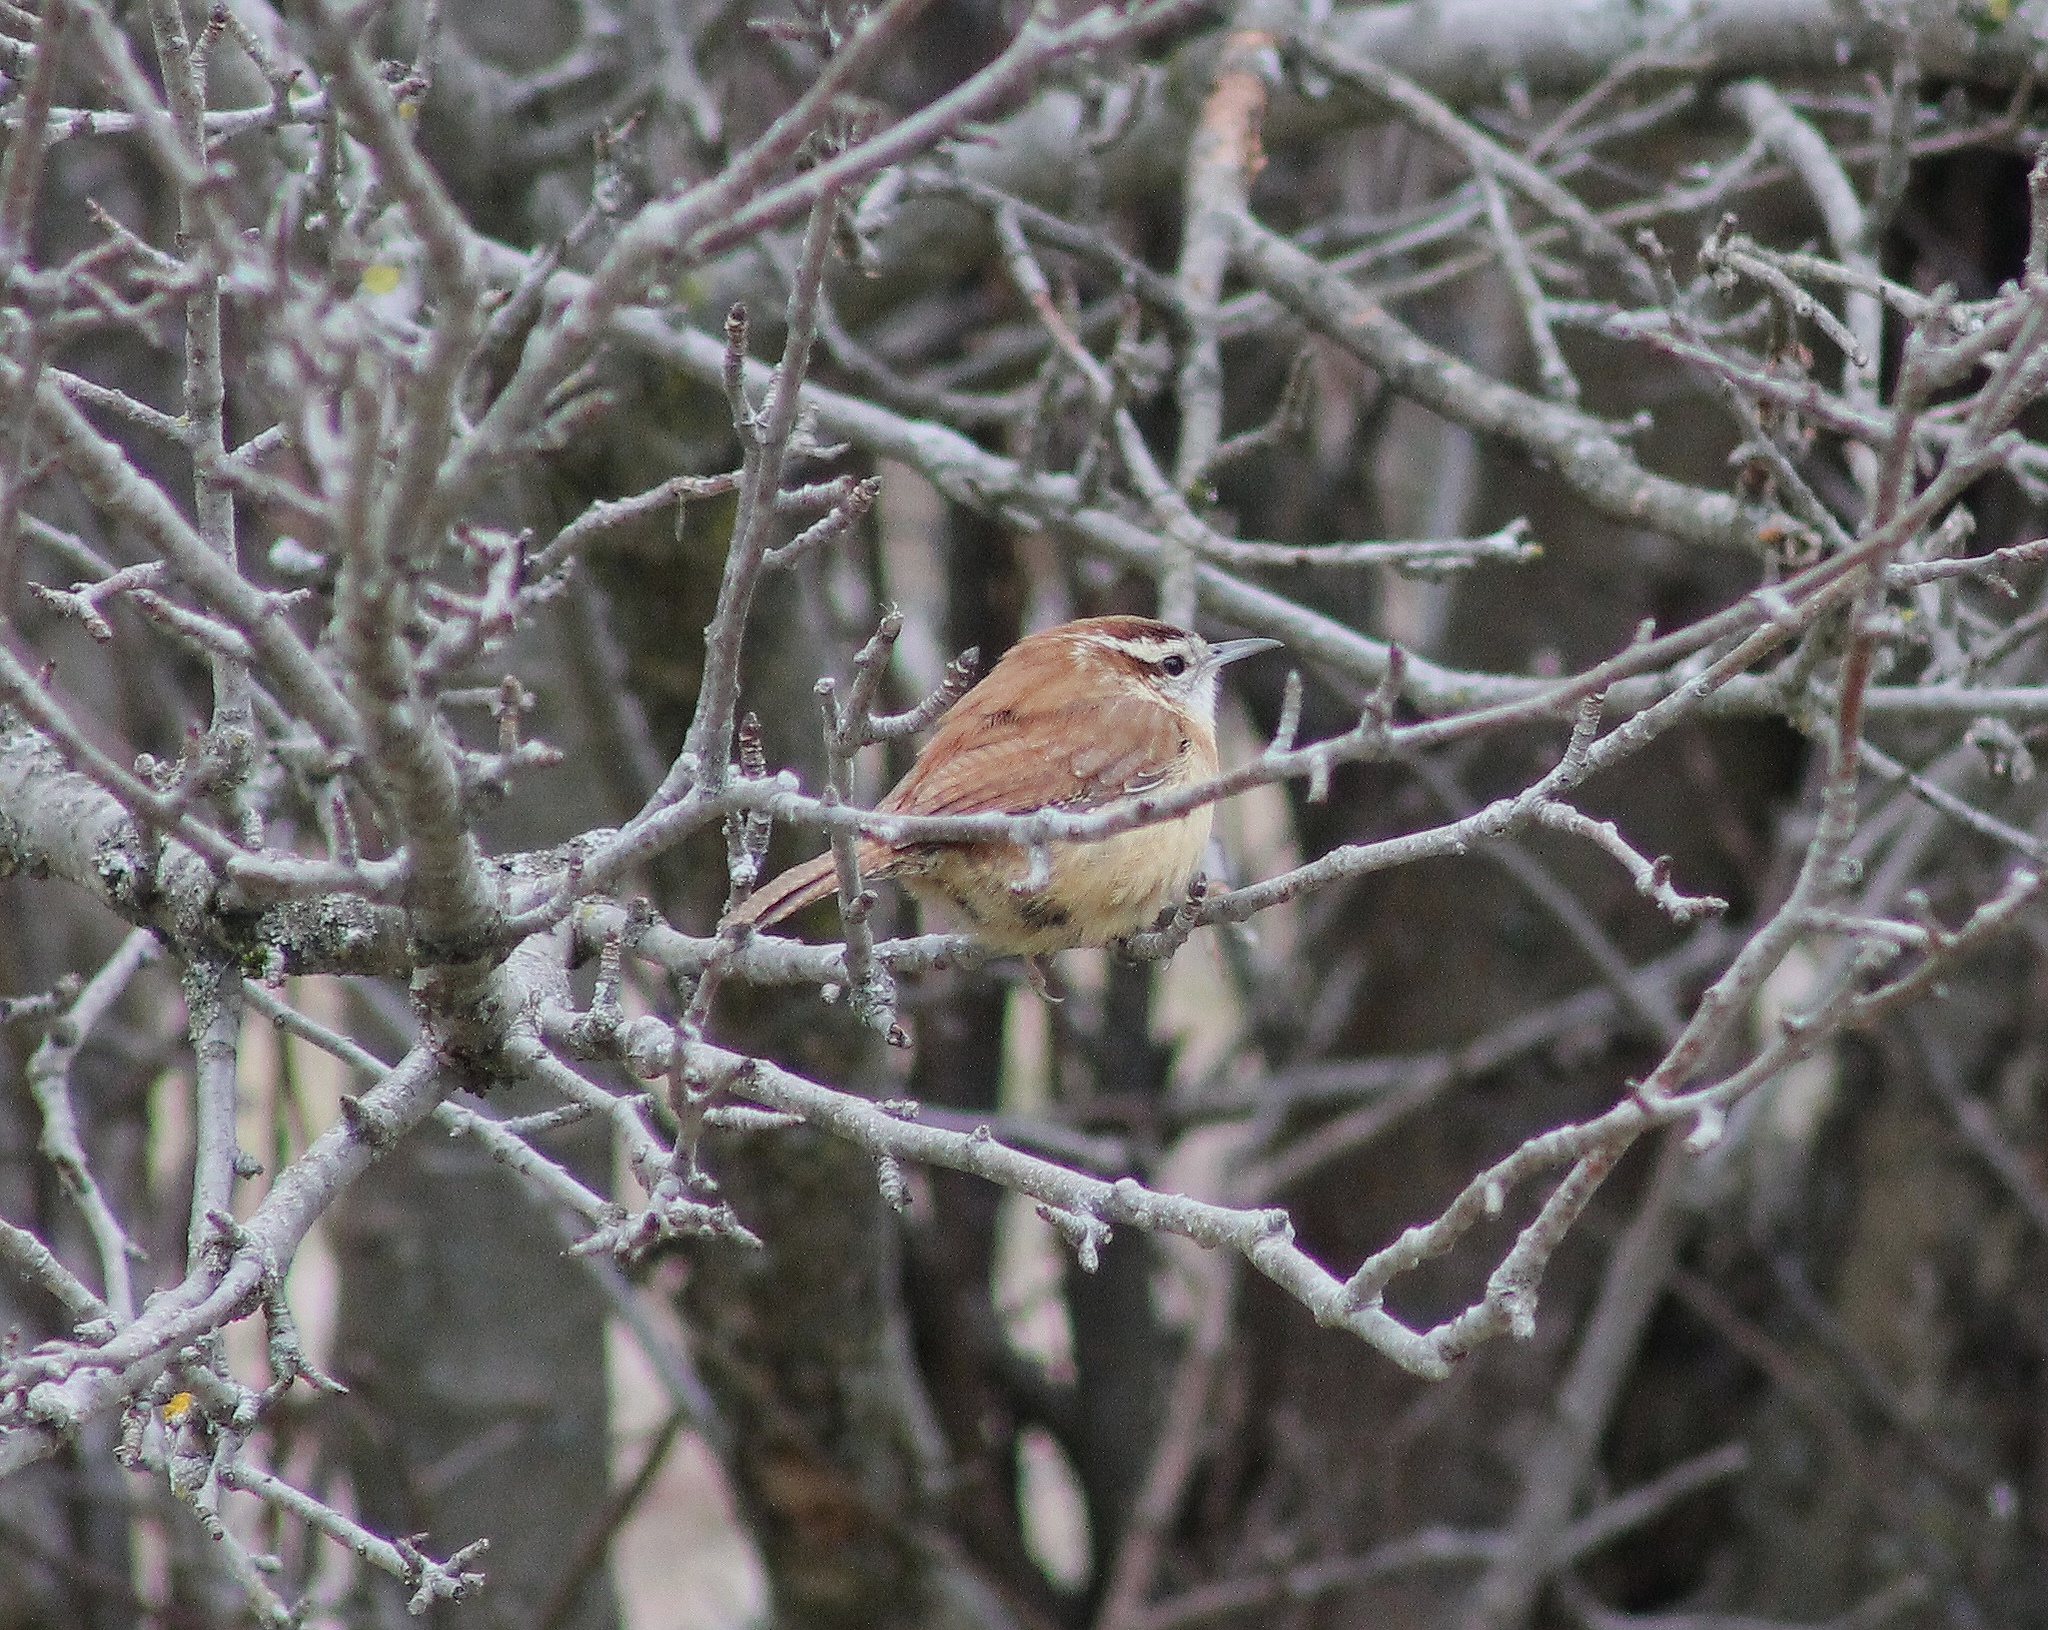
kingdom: Animalia
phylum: Chordata
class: Aves
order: Passeriformes
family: Troglodytidae
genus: Thryothorus
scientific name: Thryothorus ludovicianus
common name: Carolina wren
